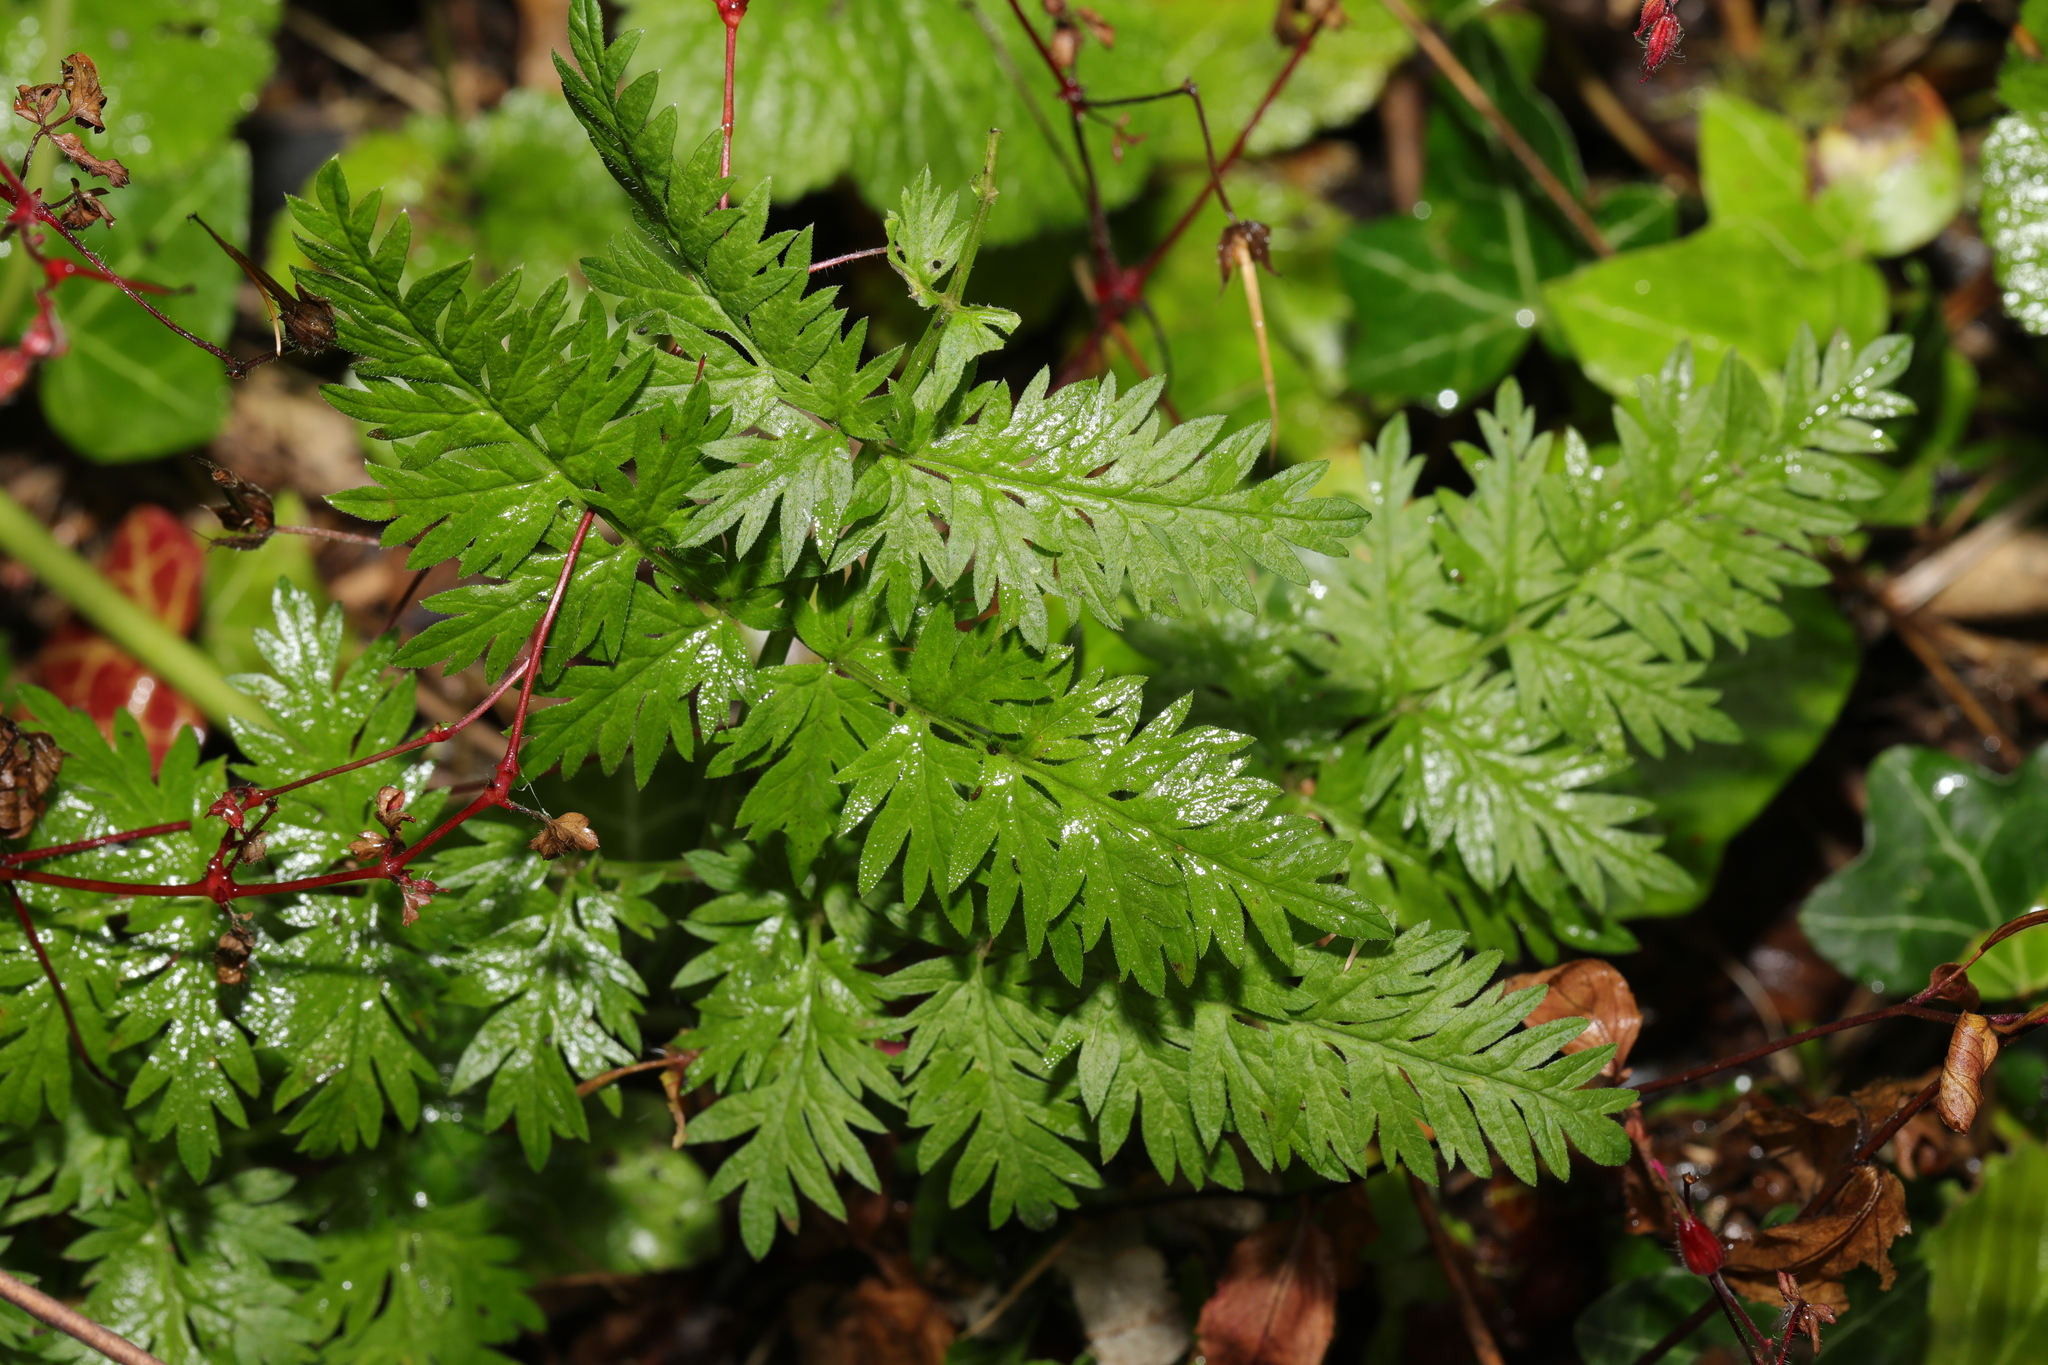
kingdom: Plantae
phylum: Tracheophyta
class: Magnoliopsida
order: Apiales
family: Apiaceae
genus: Anthriscus
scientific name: Anthriscus sylvestris
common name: Cow parsley
